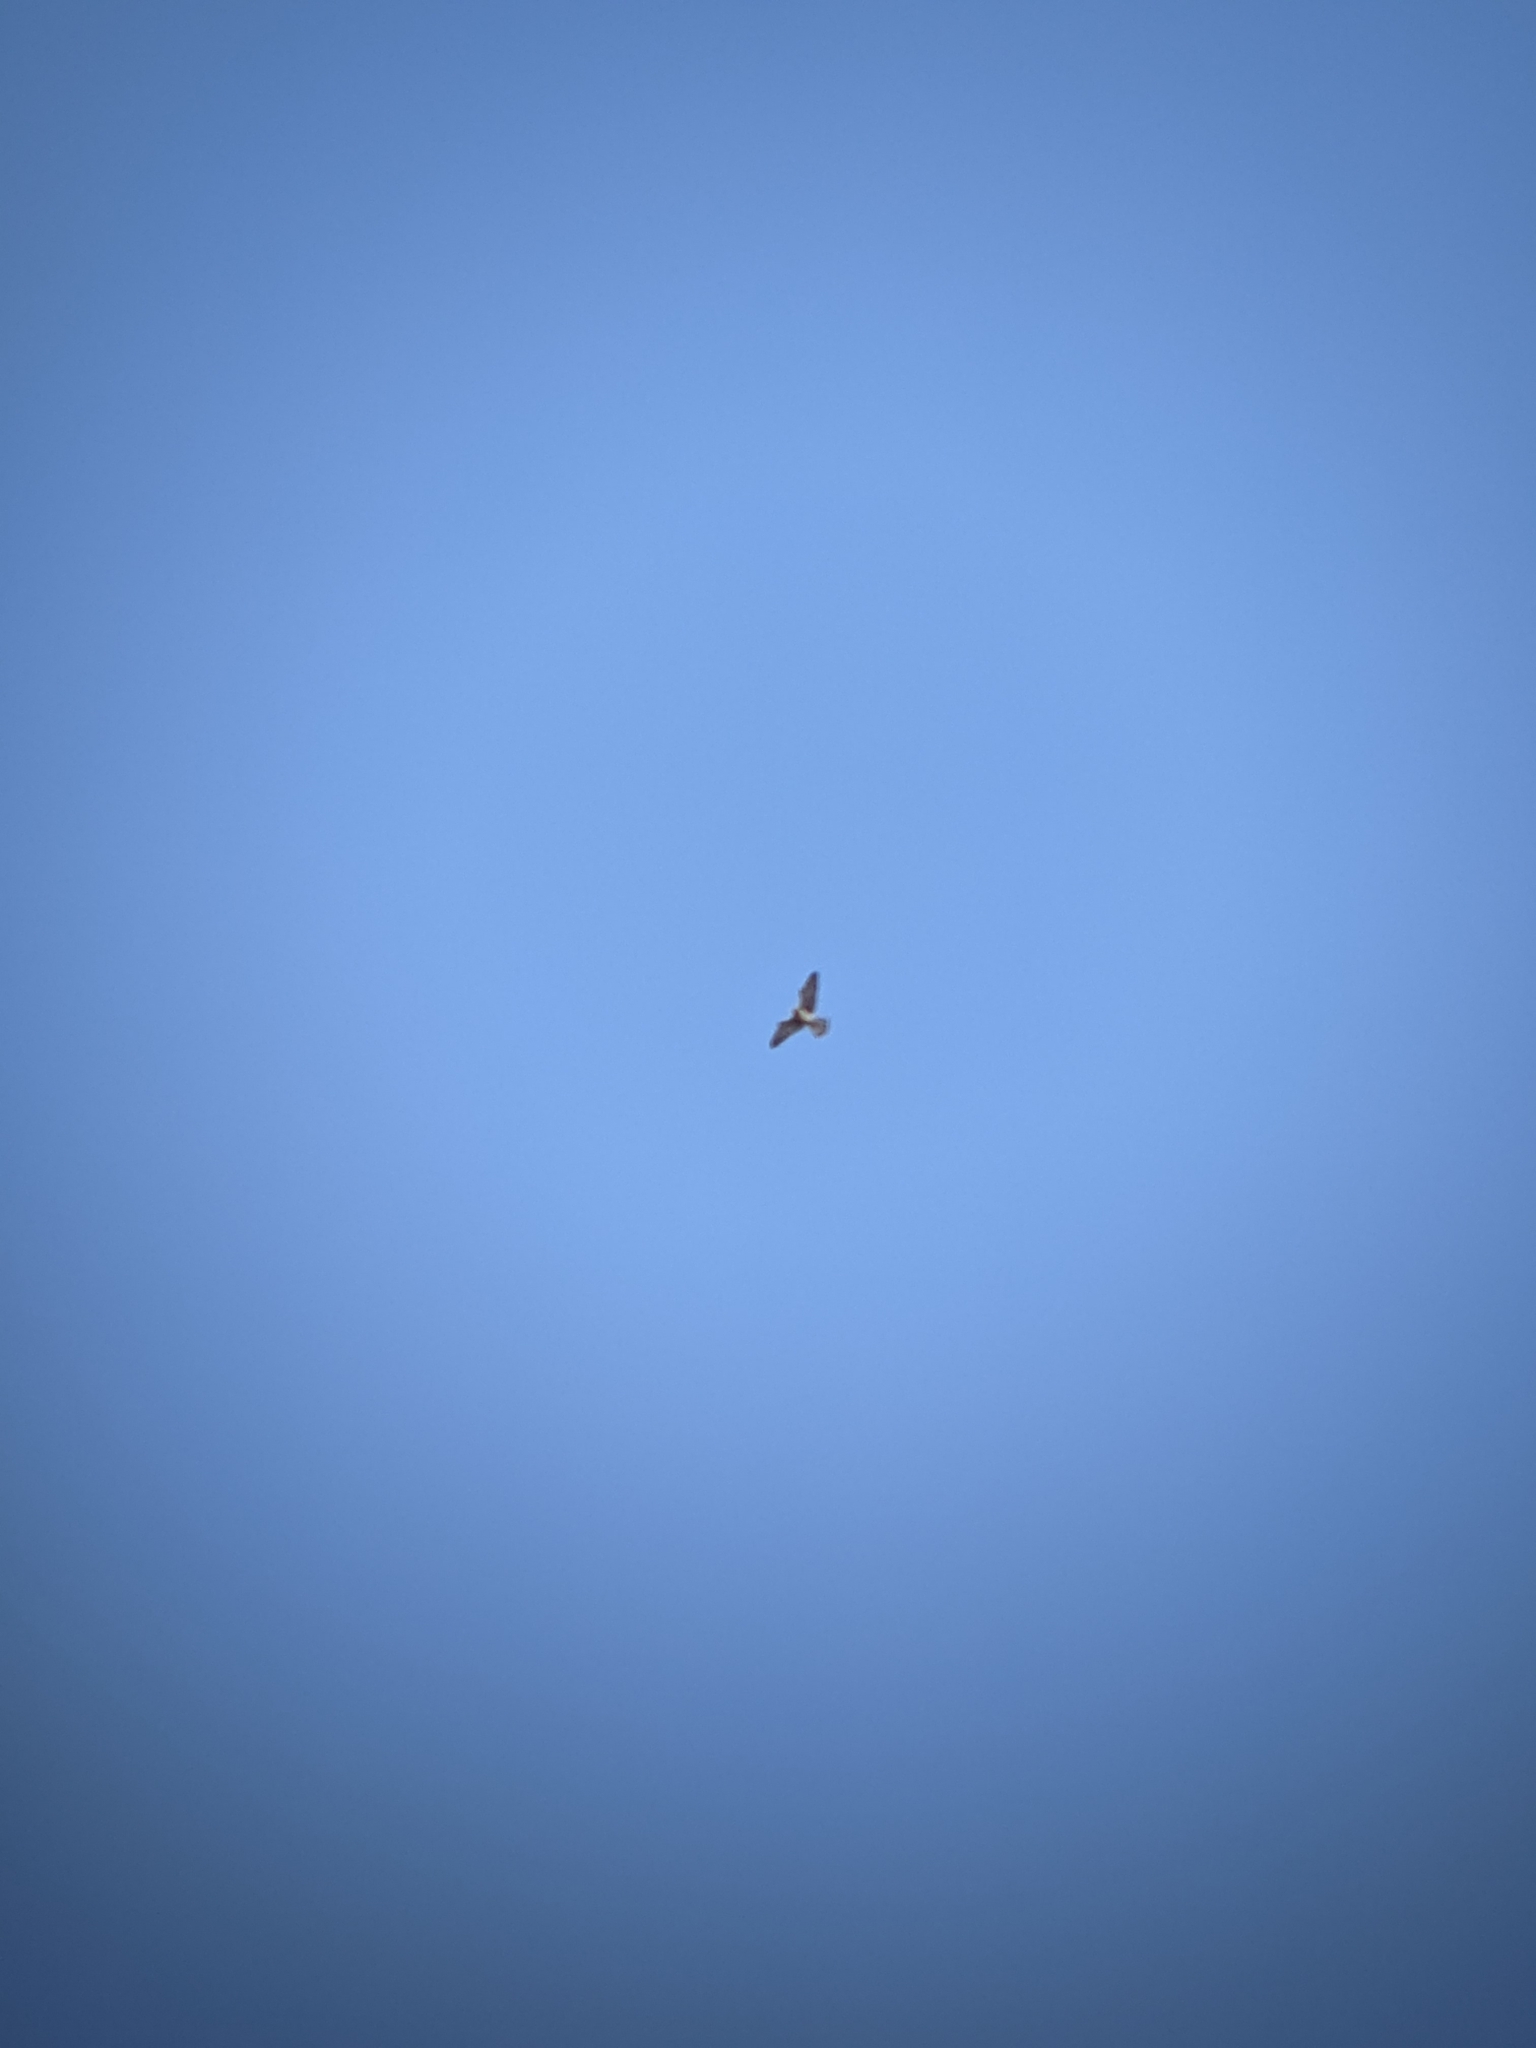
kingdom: Animalia
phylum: Chordata
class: Aves
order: Falconiformes
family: Falconidae
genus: Falco
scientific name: Falco tinnunculus
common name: Common kestrel
